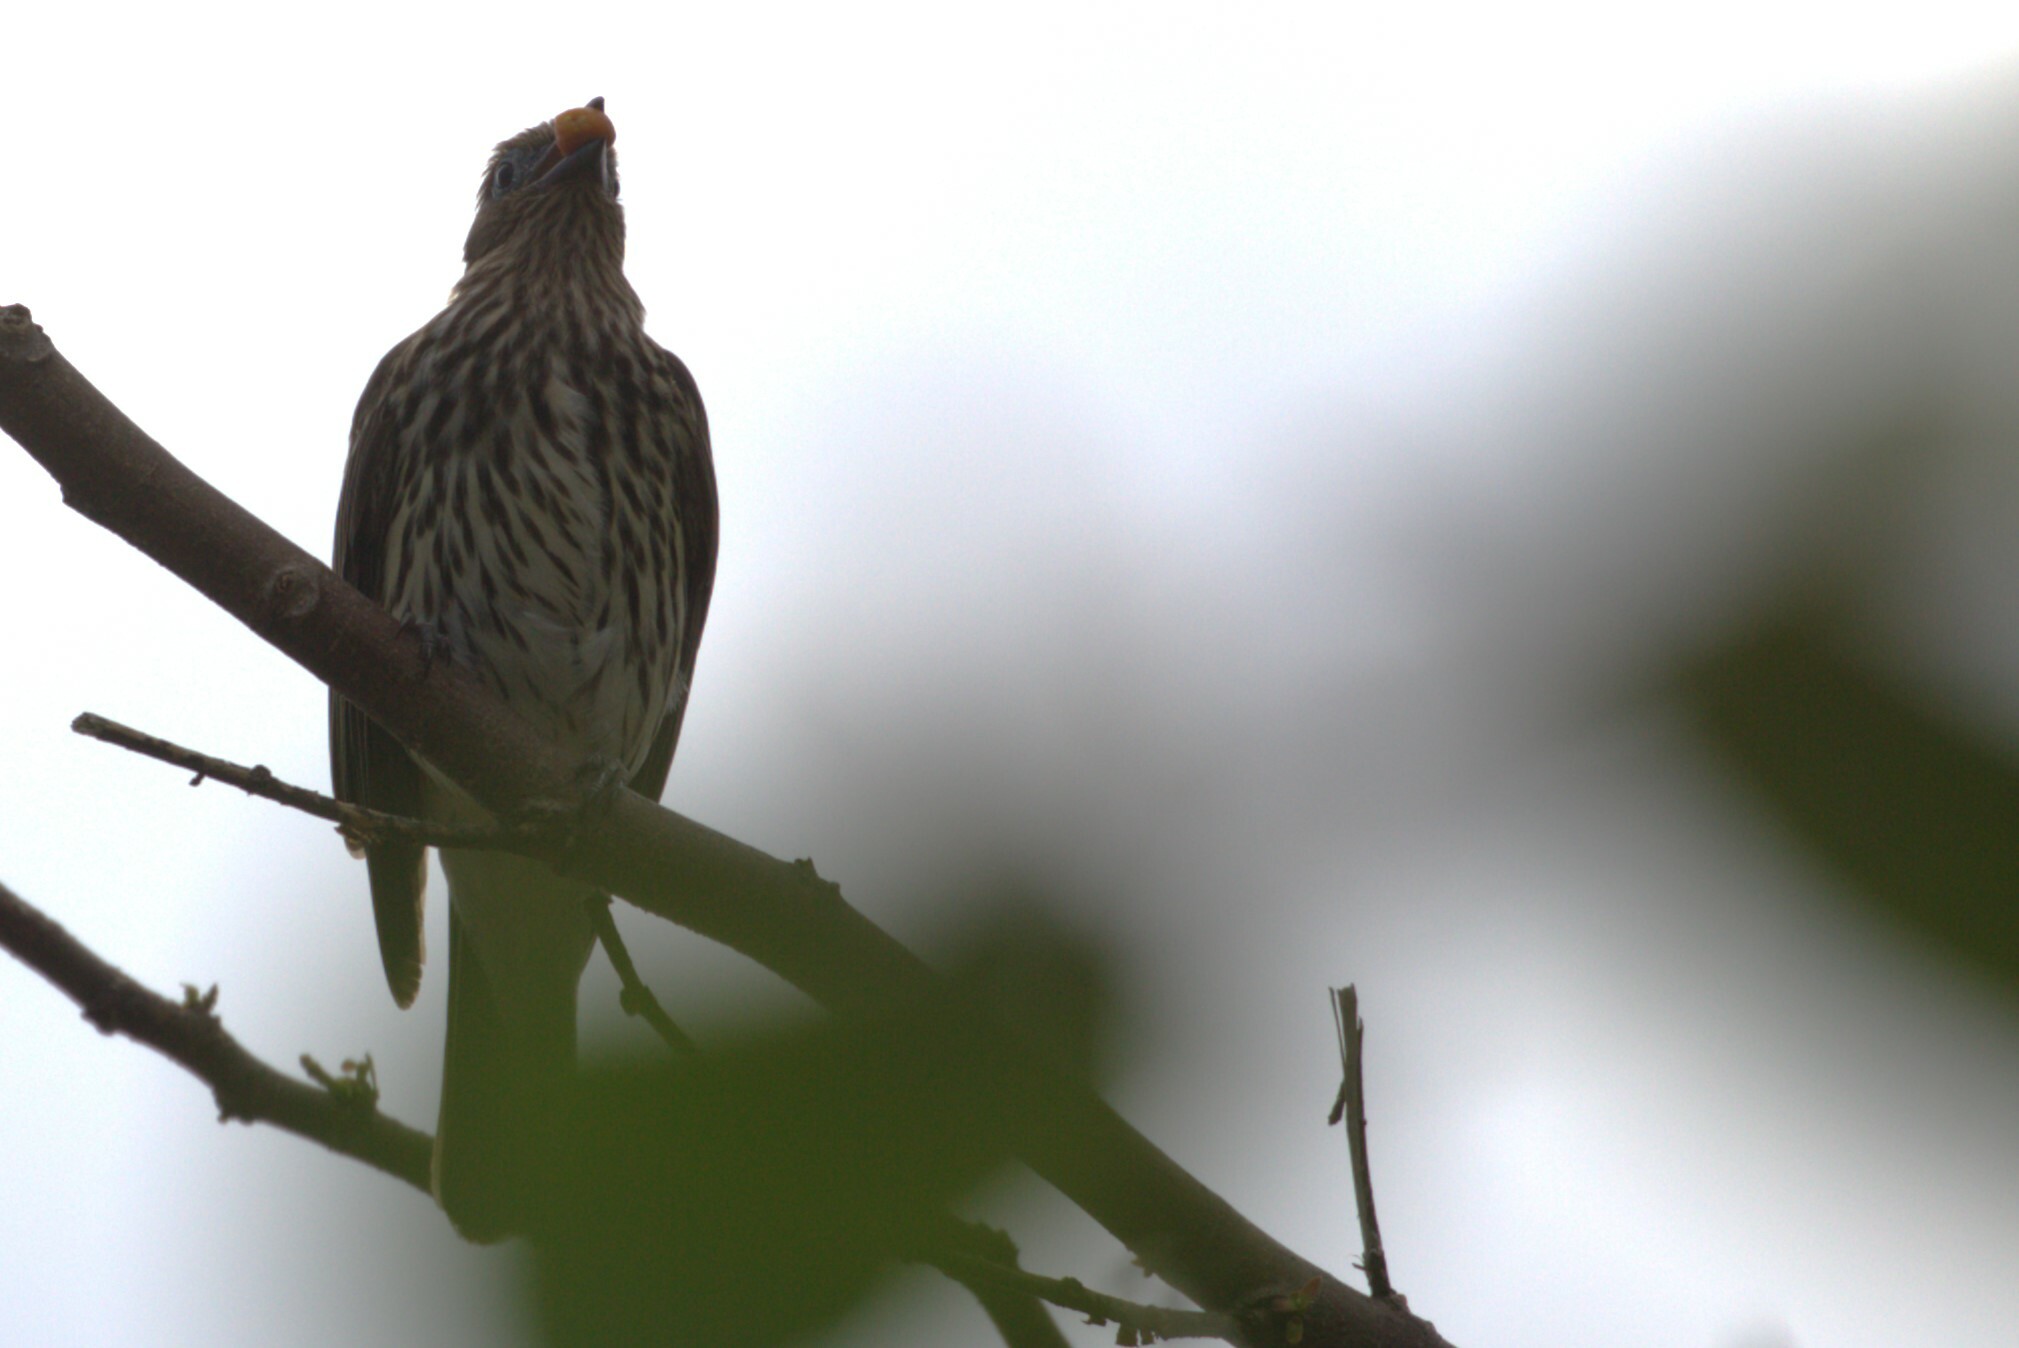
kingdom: Animalia
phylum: Chordata
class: Aves
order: Passeriformes
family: Oriolidae
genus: Sphecotheres
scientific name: Sphecotheres vieilloti
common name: Australasian figbird
